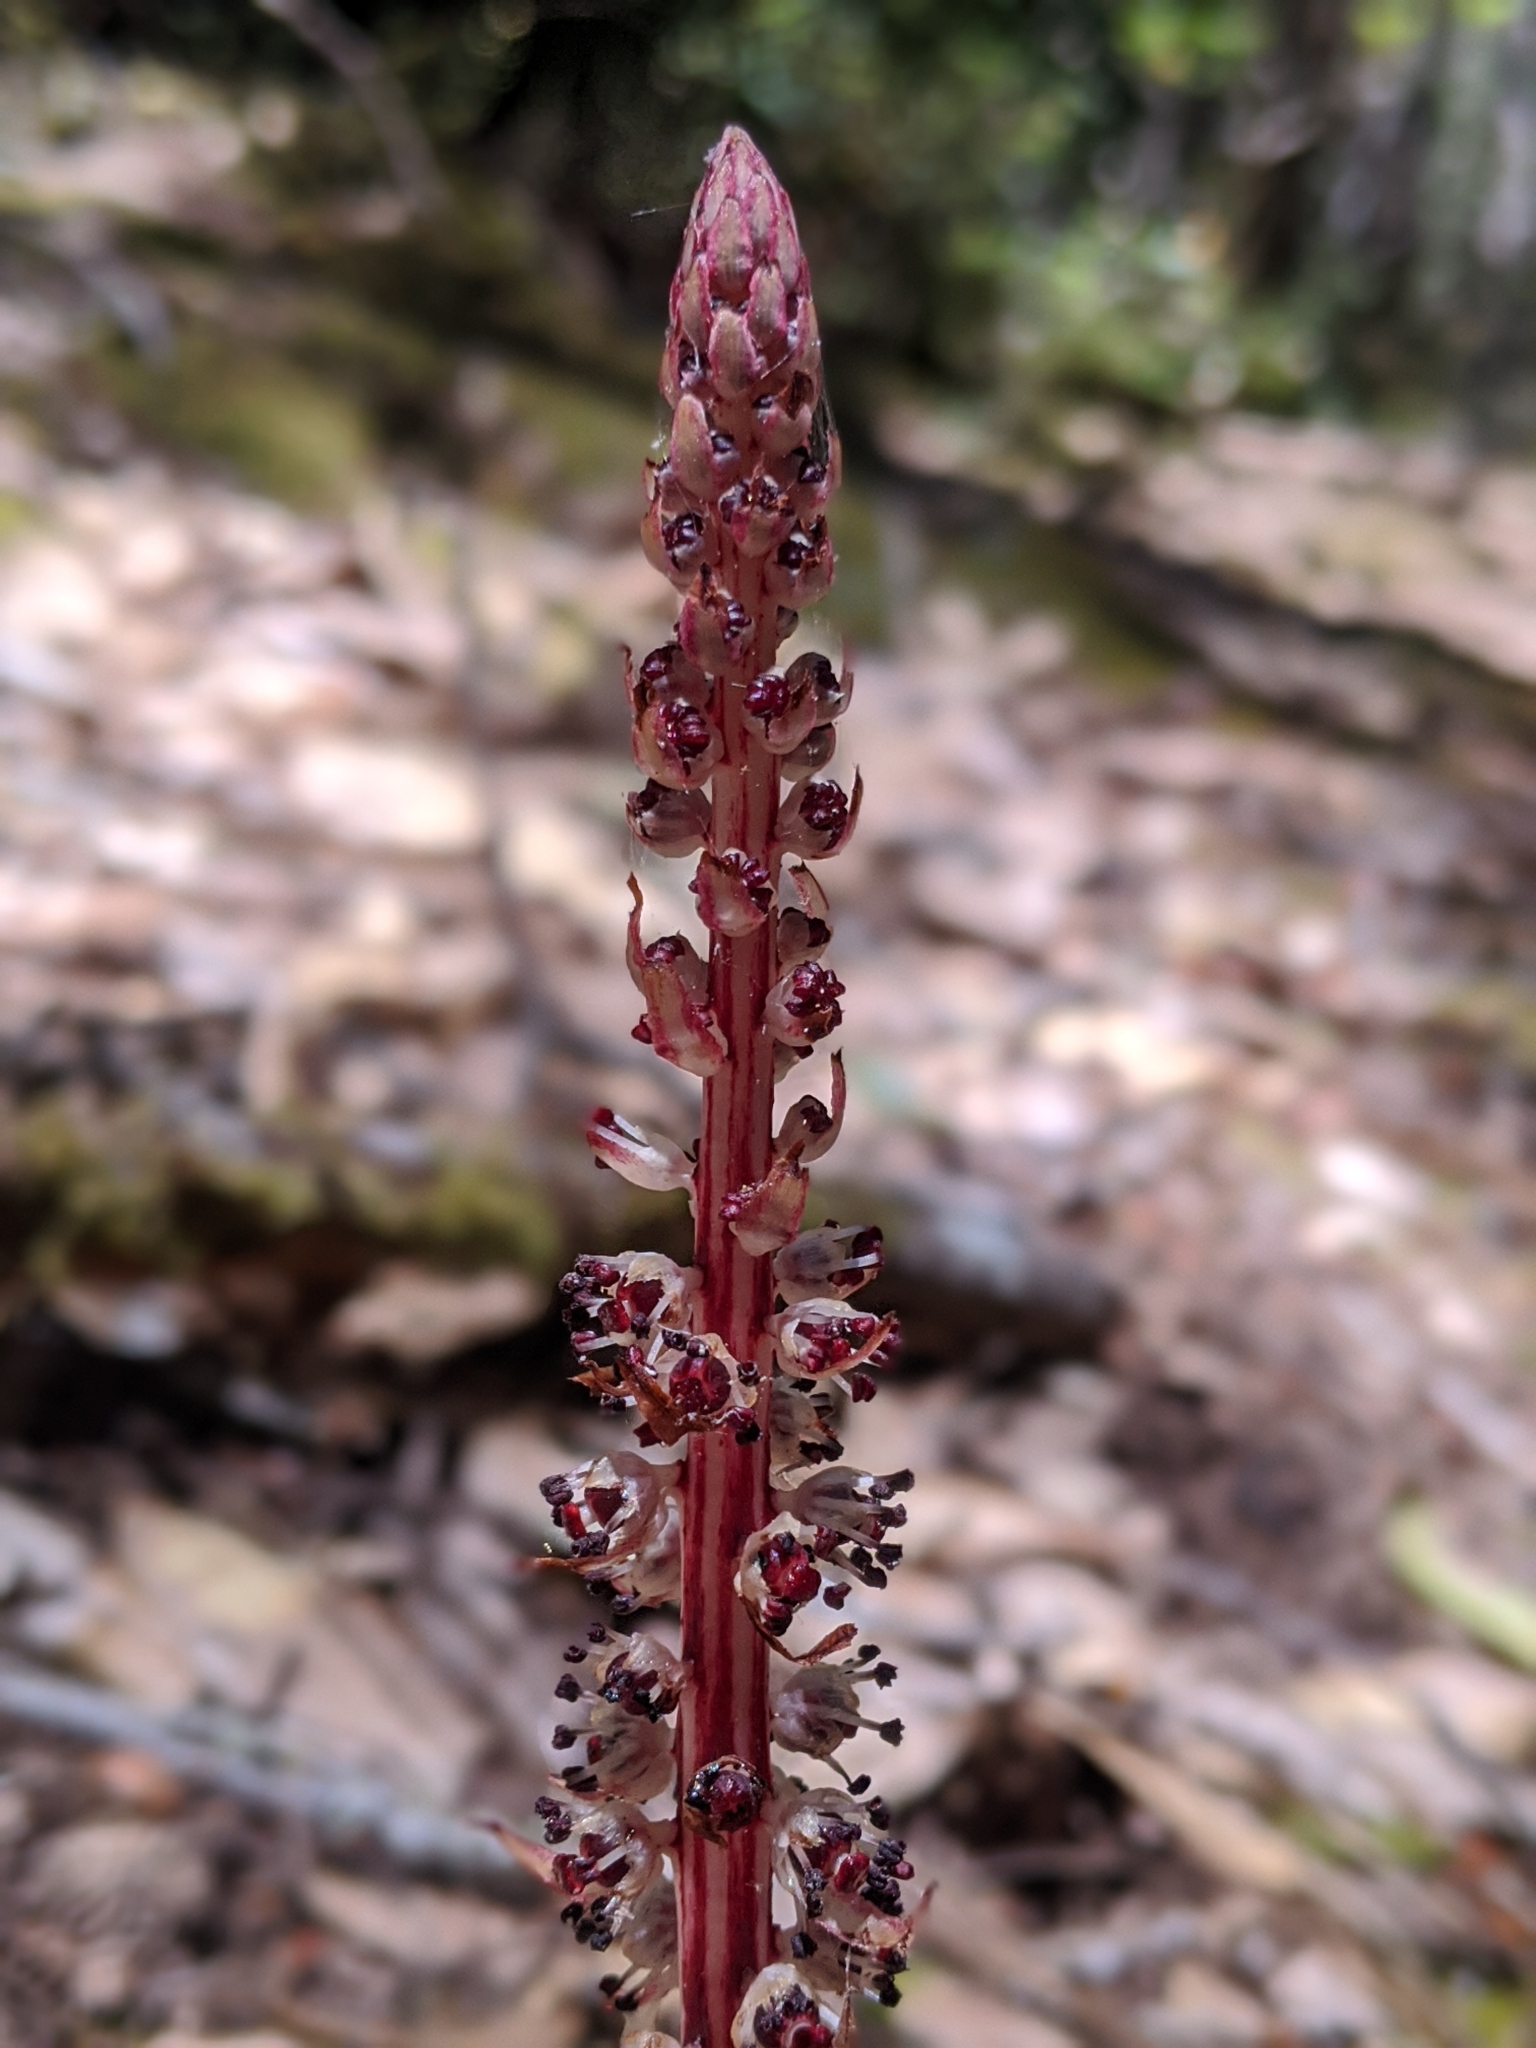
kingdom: Plantae
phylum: Tracheophyta
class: Magnoliopsida
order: Ericales
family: Ericaceae
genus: Allotropa
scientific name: Allotropa virgata
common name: Candy-striped allotropa
